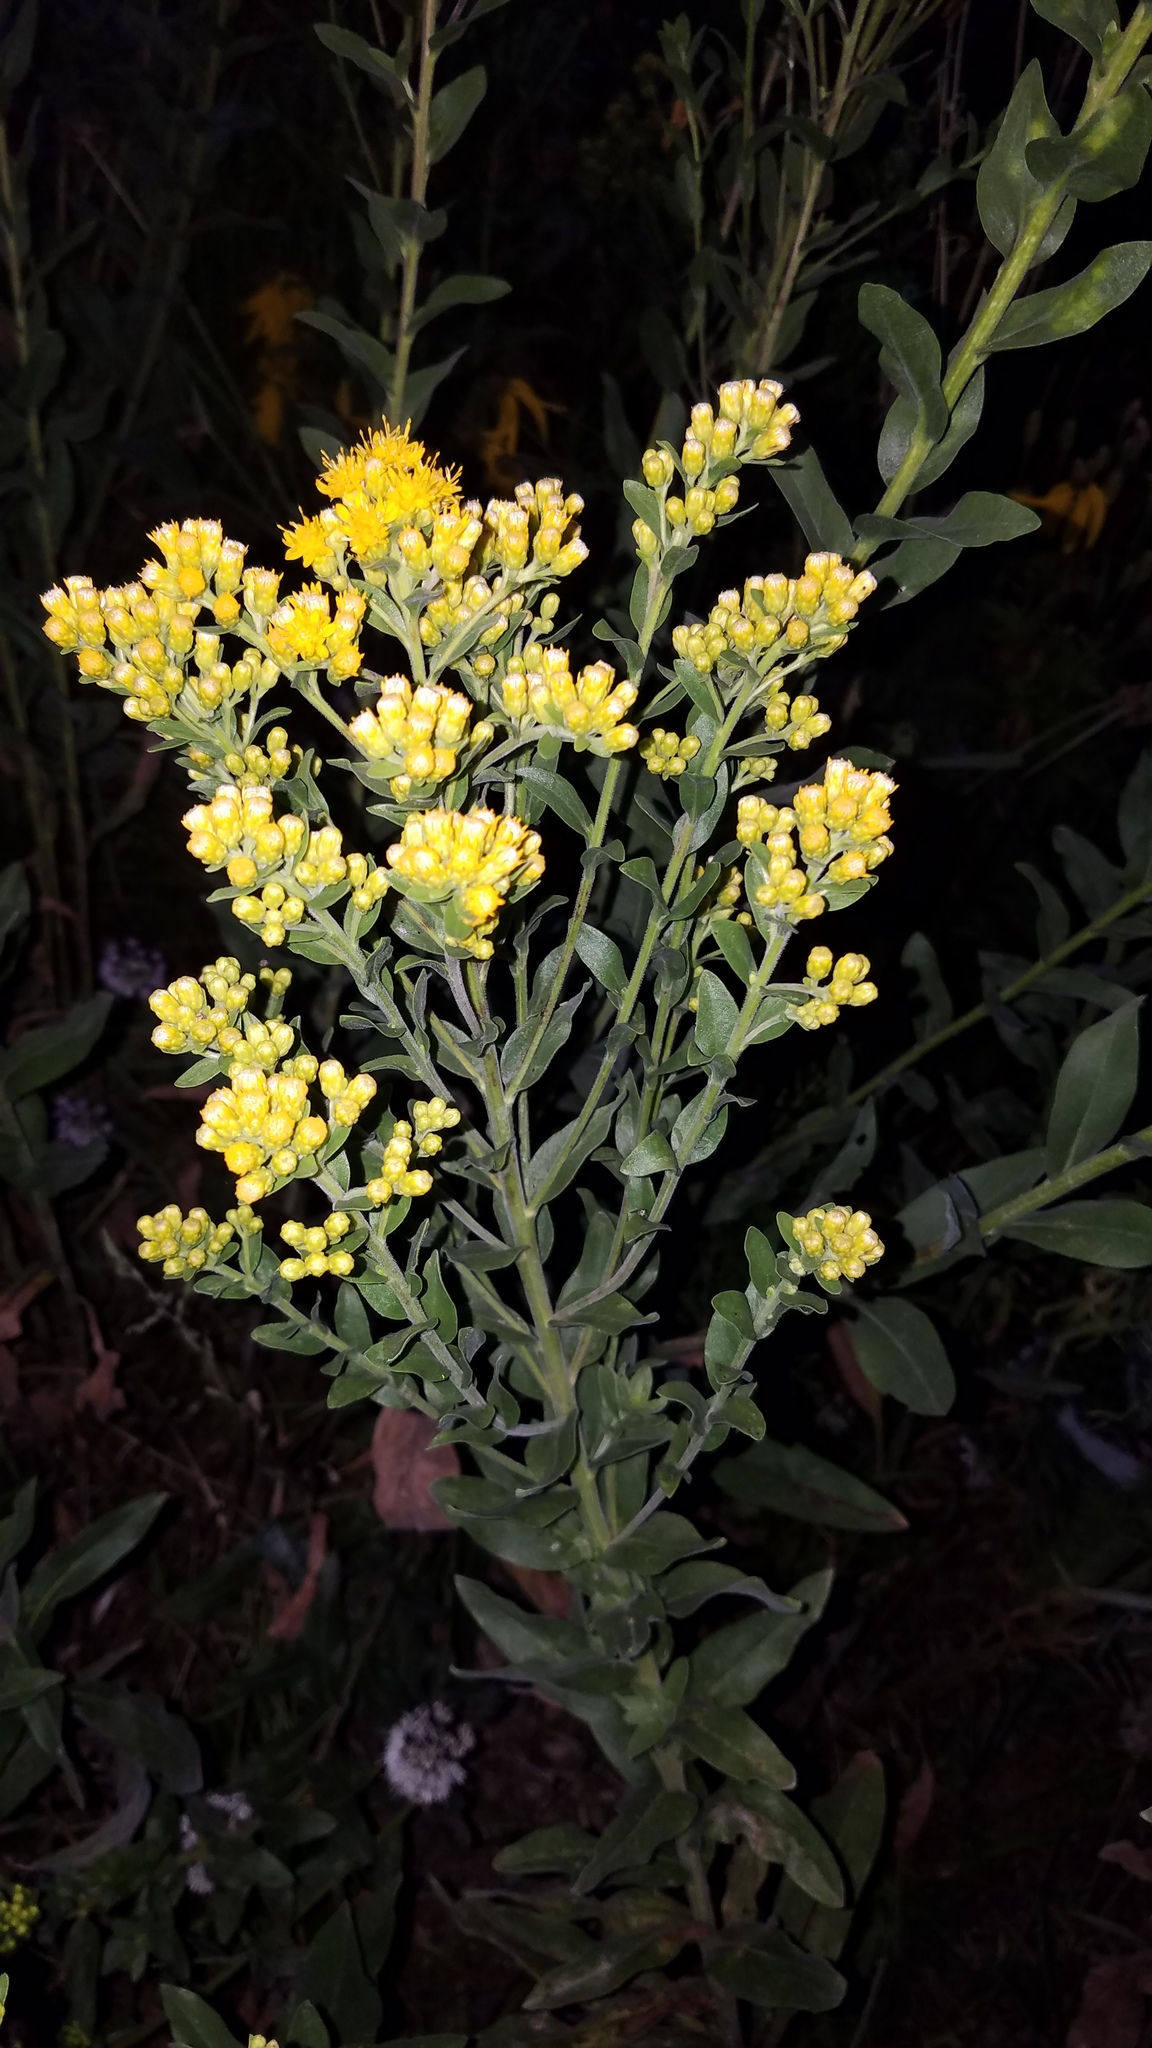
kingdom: Plantae
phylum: Tracheophyta
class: Magnoliopsida
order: Asterales
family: Asteraceae
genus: Solidago
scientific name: Solidago rigida
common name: Rigid goldenrod
